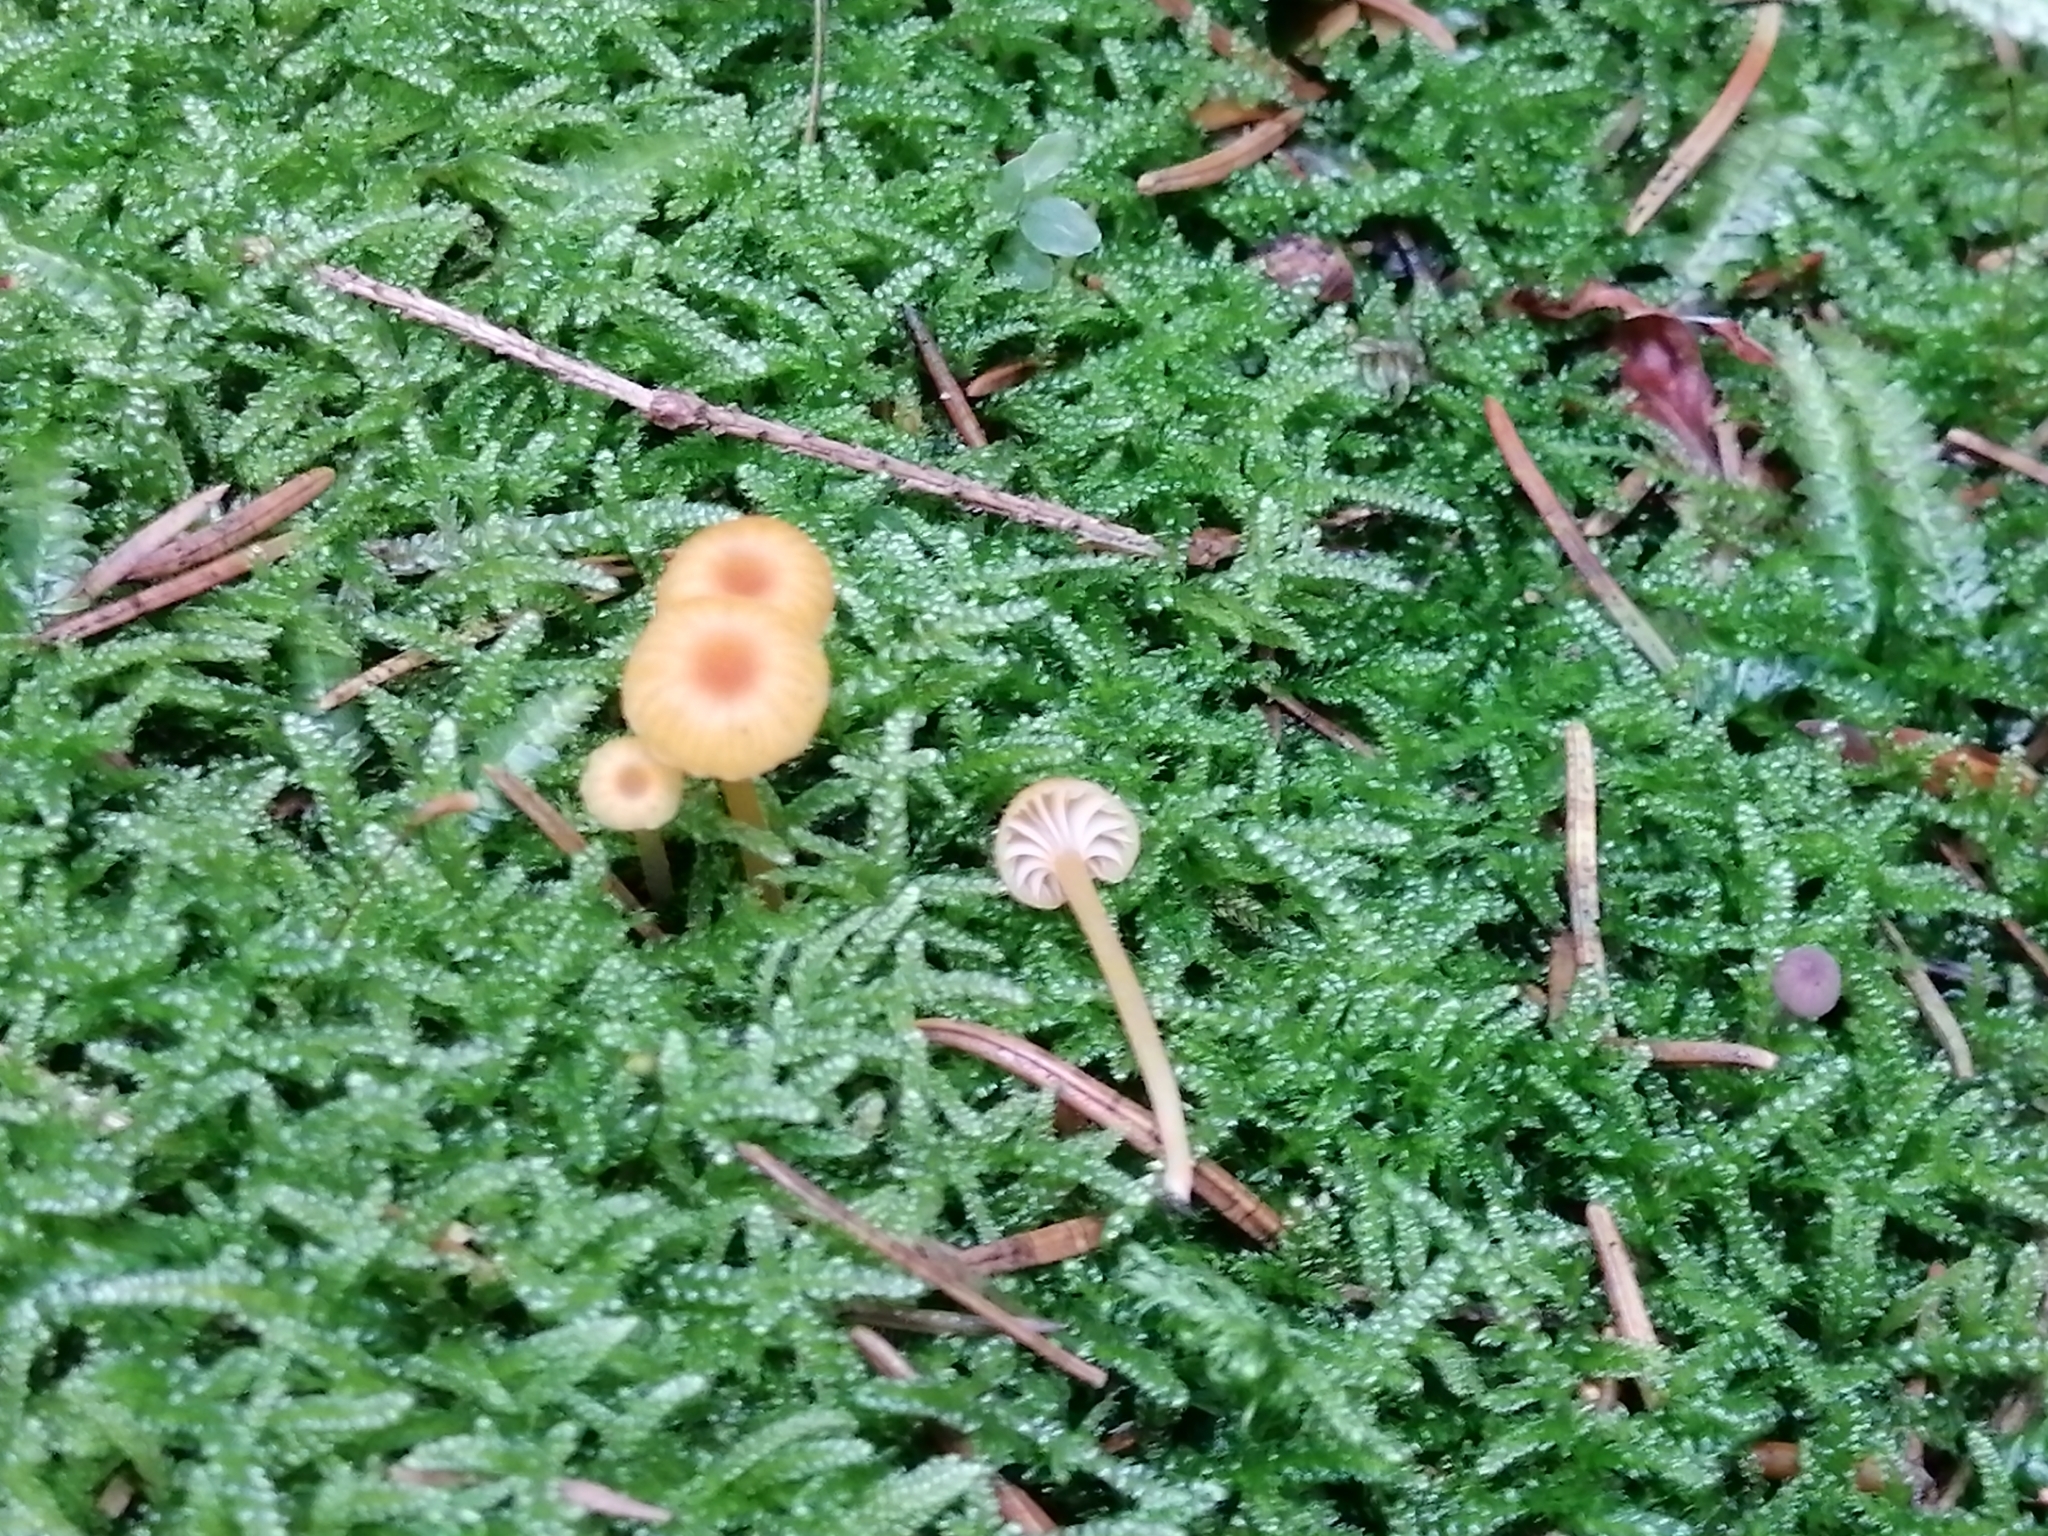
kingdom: Fungi
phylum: Basidiomycota
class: Agaricomycetes
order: Hymenochaetales
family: Rickenellaceae
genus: Rickenella
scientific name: Rickenella fibula
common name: Orange mosscap
